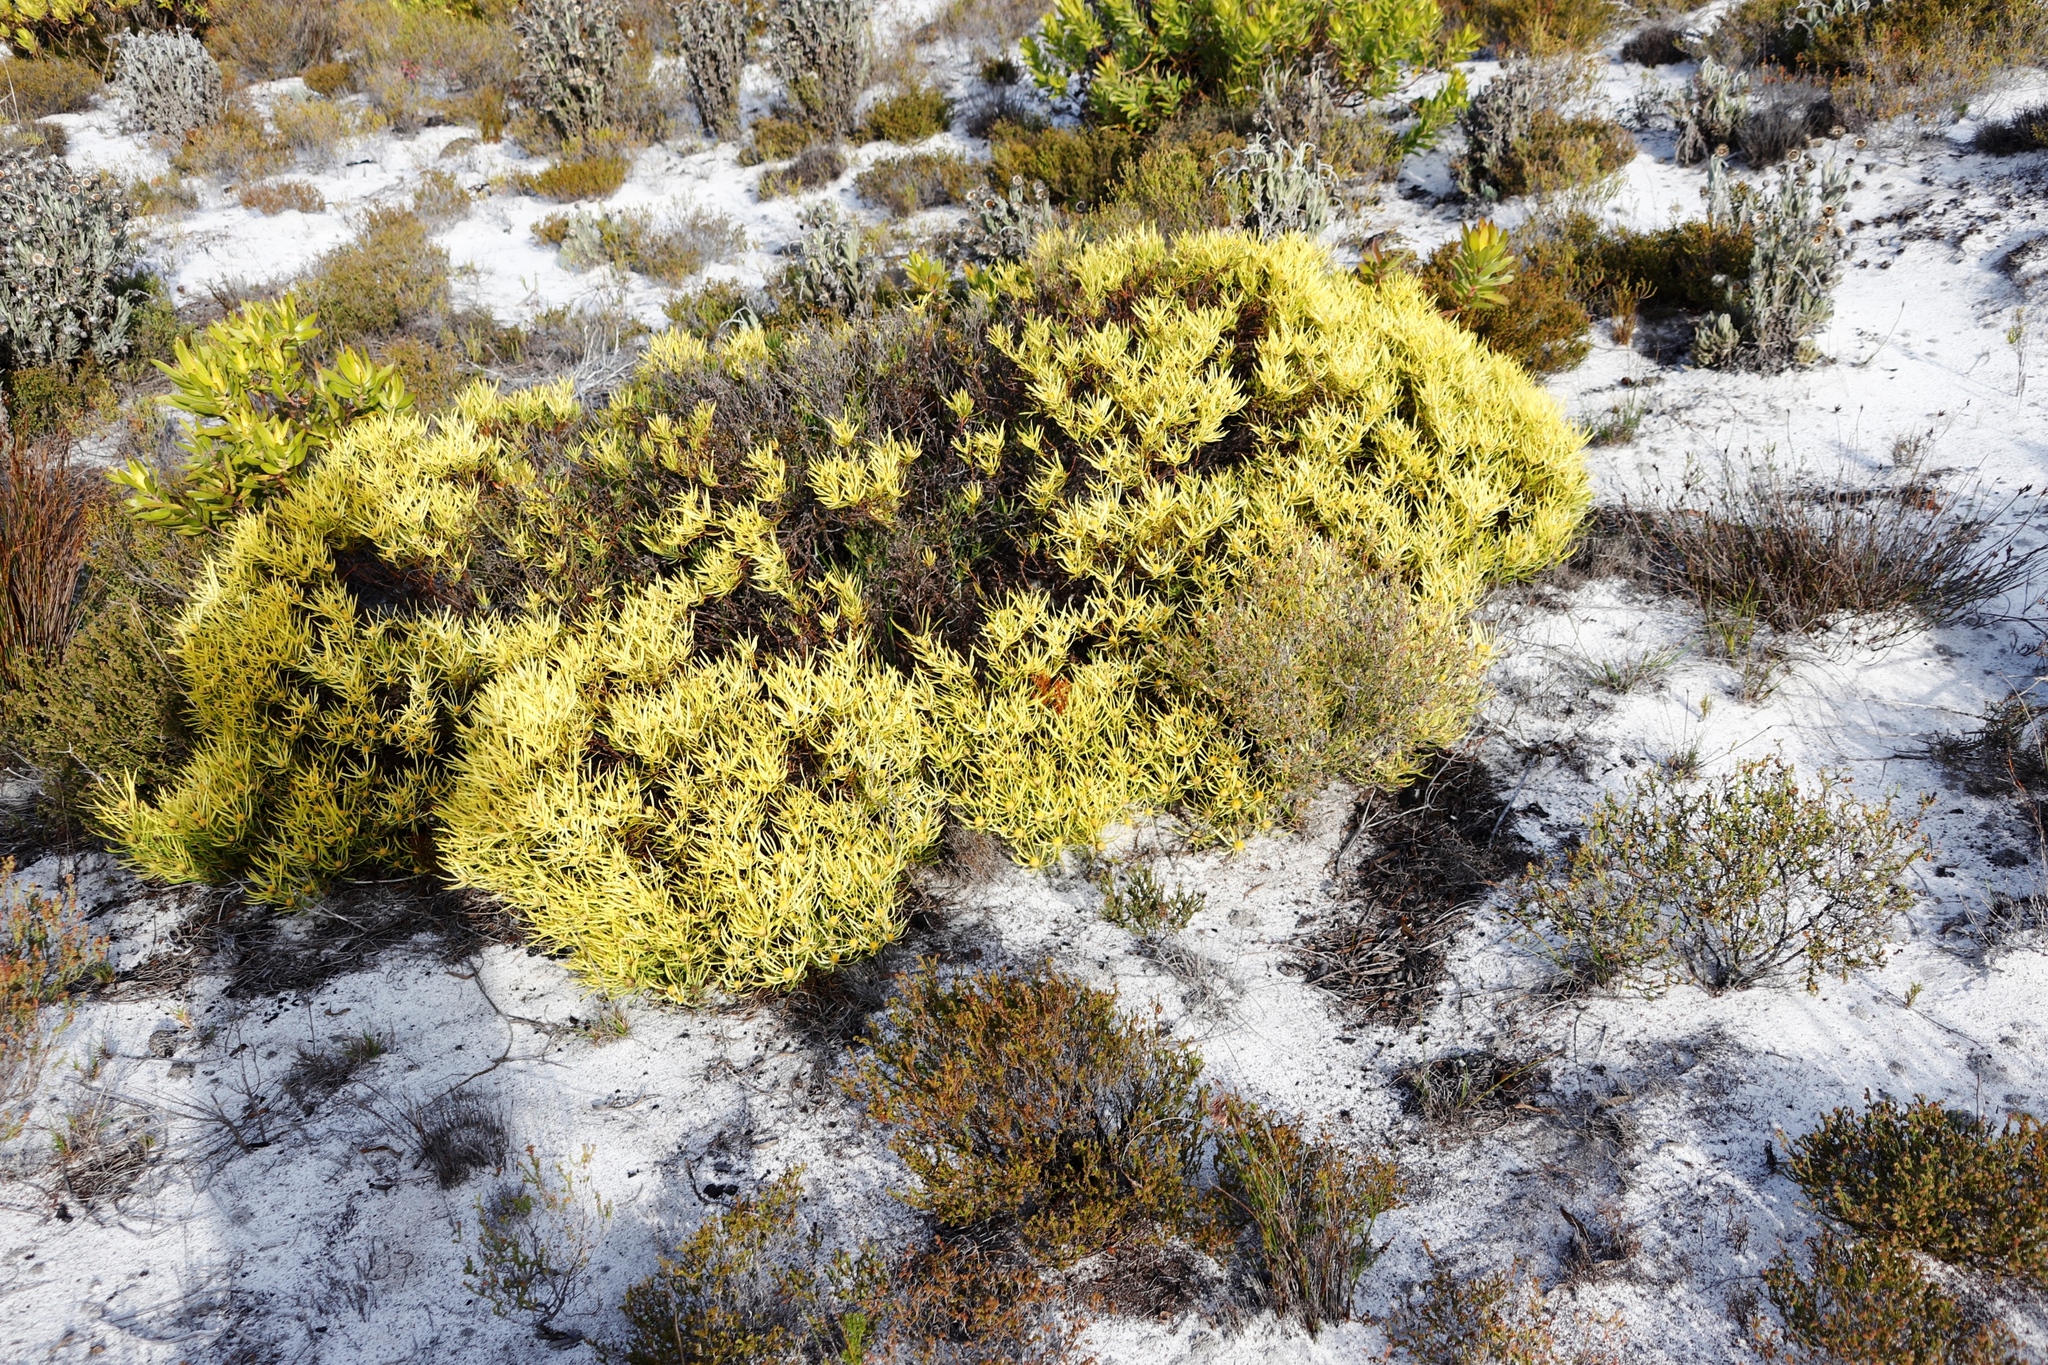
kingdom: Plantae
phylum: Tracheophyta
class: Magnoliopsida
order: Proteales
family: Proteaceae
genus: Leucadendron
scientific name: Leucadendron salignum
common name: Common sunshine conebush
